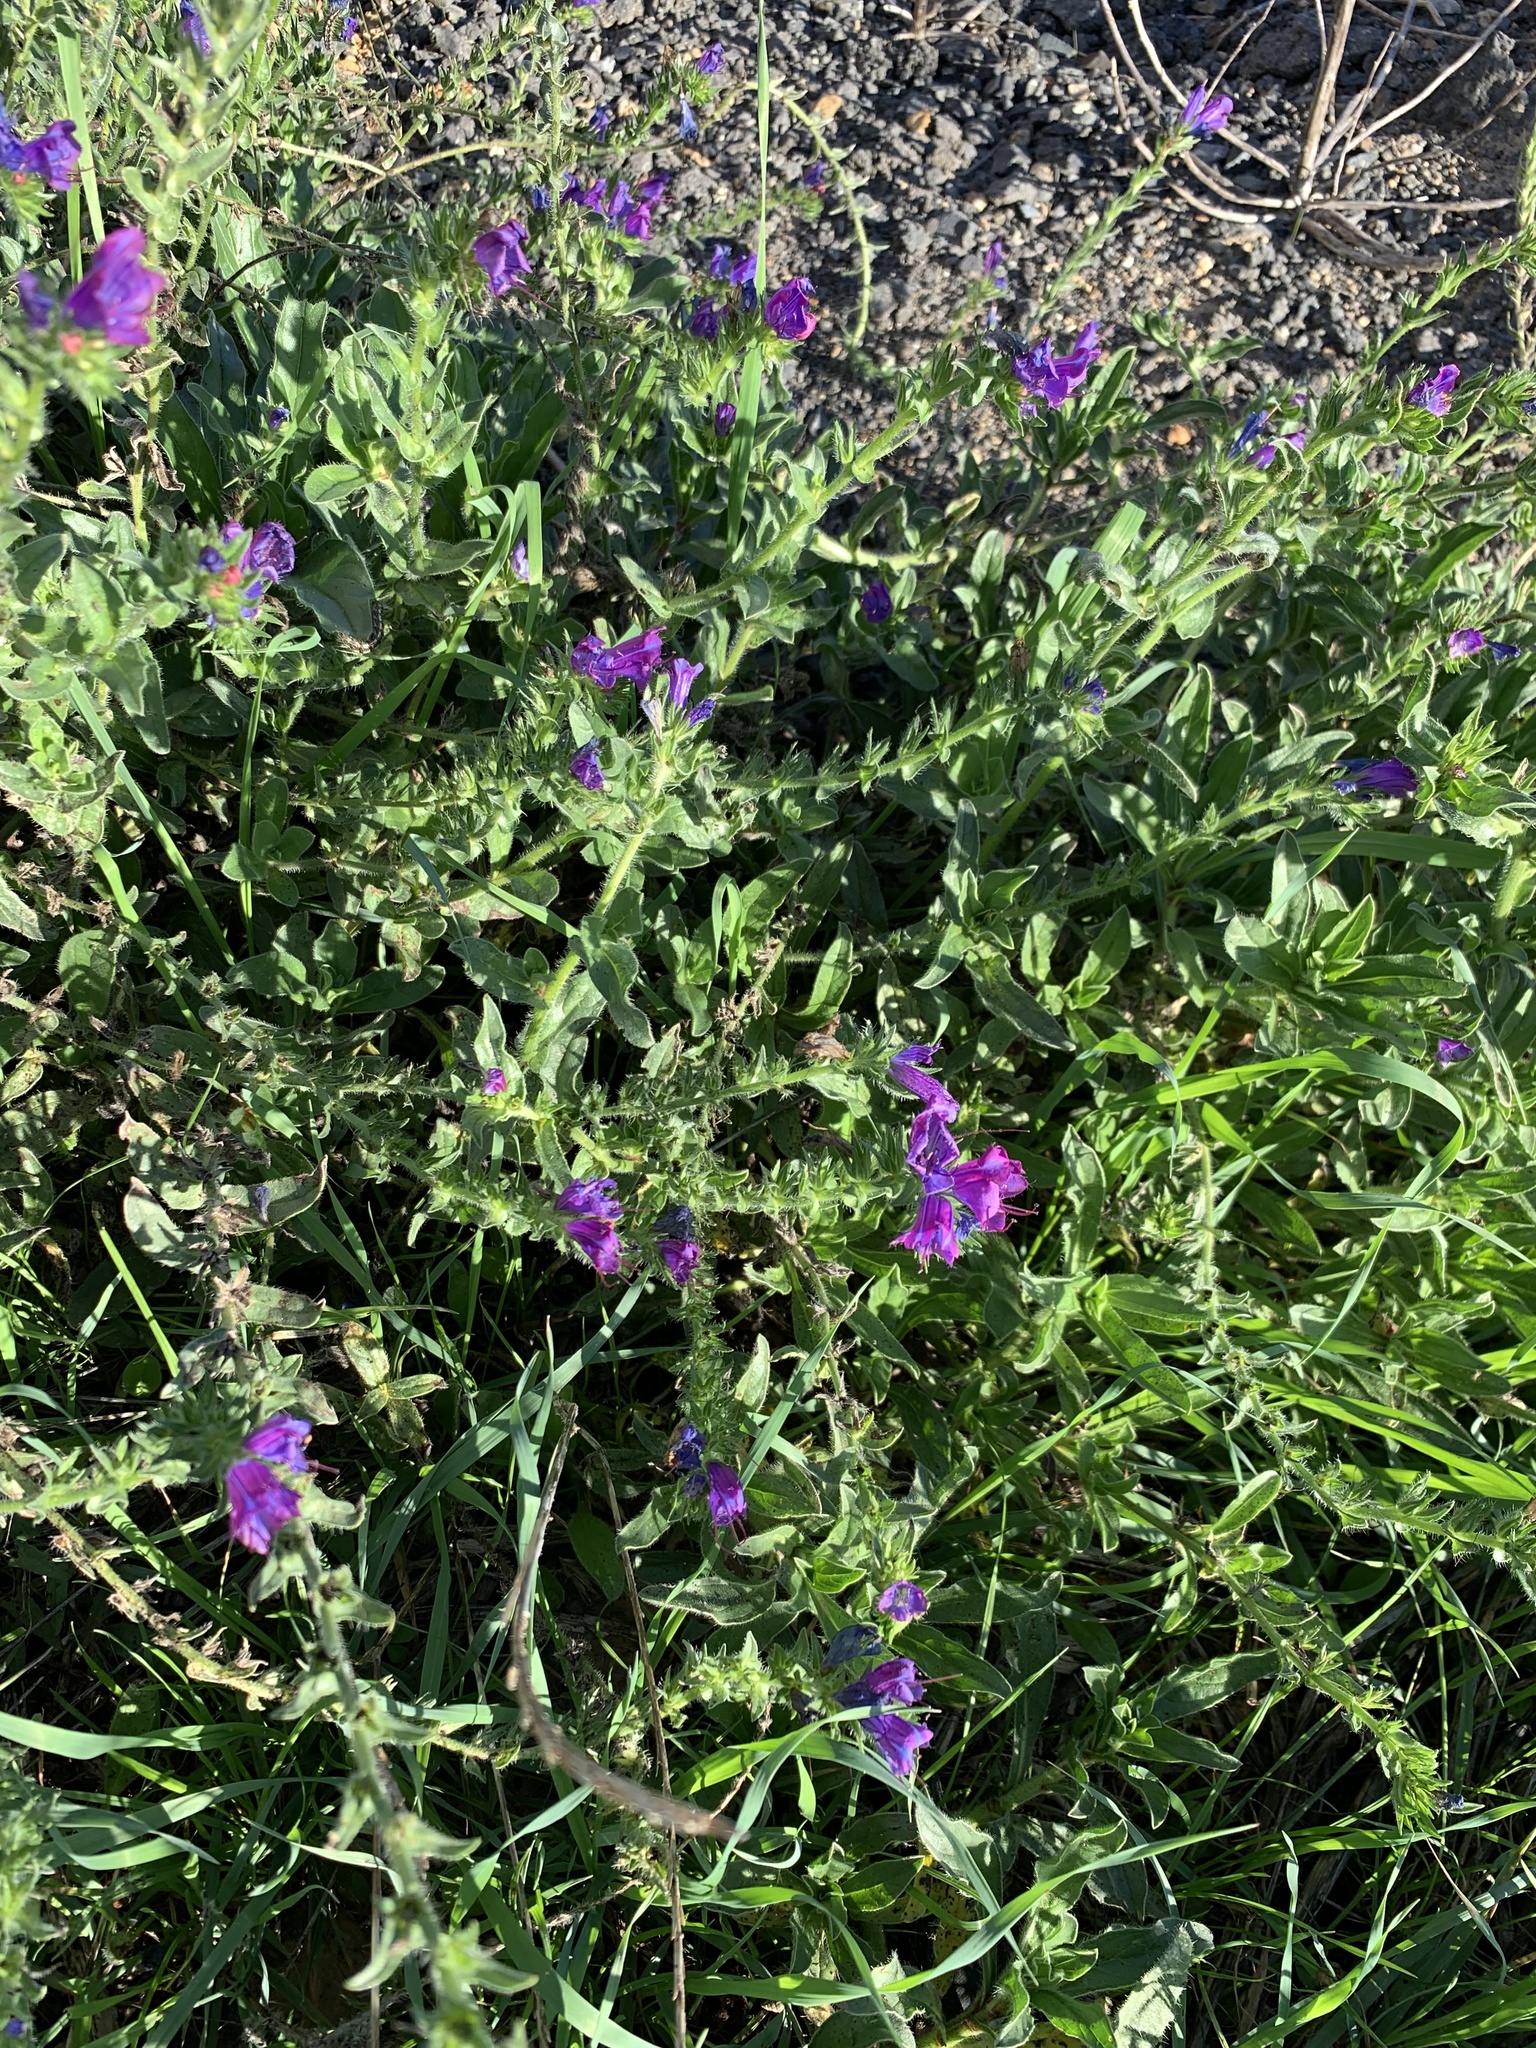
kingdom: Plantae
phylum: Tracheophyta
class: Magnoliopsida
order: Boraginales
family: Boraginaceae
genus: Echium
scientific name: Echium plantagineum
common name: Purple viper's-bugloss
